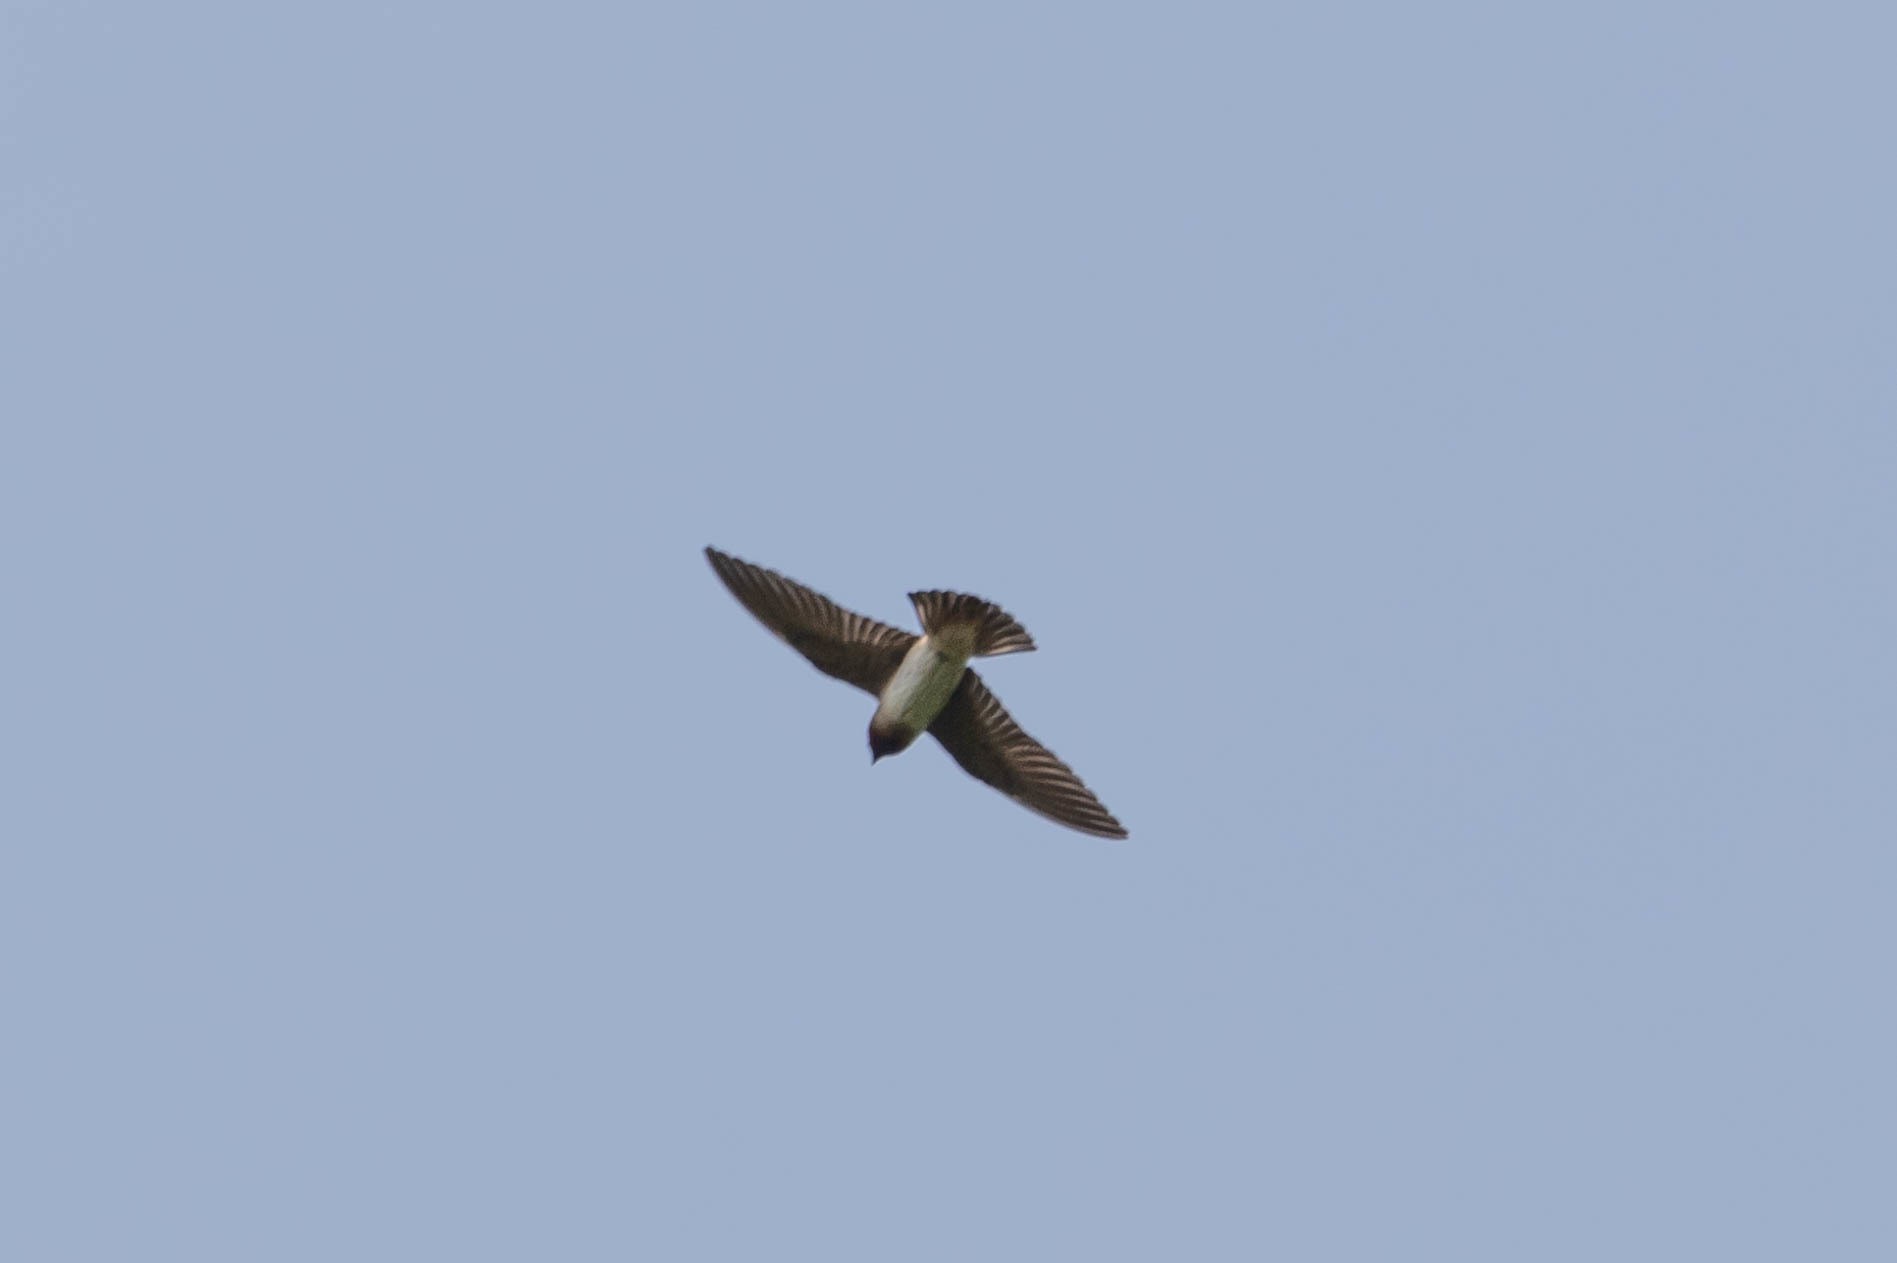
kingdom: Animalia
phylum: Chordata
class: Aves
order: Passeriformes
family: Hirundinidae
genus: Stelgidopteryx
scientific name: Stelgidopteryx serripennis
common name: Northern rough-winged swallow
